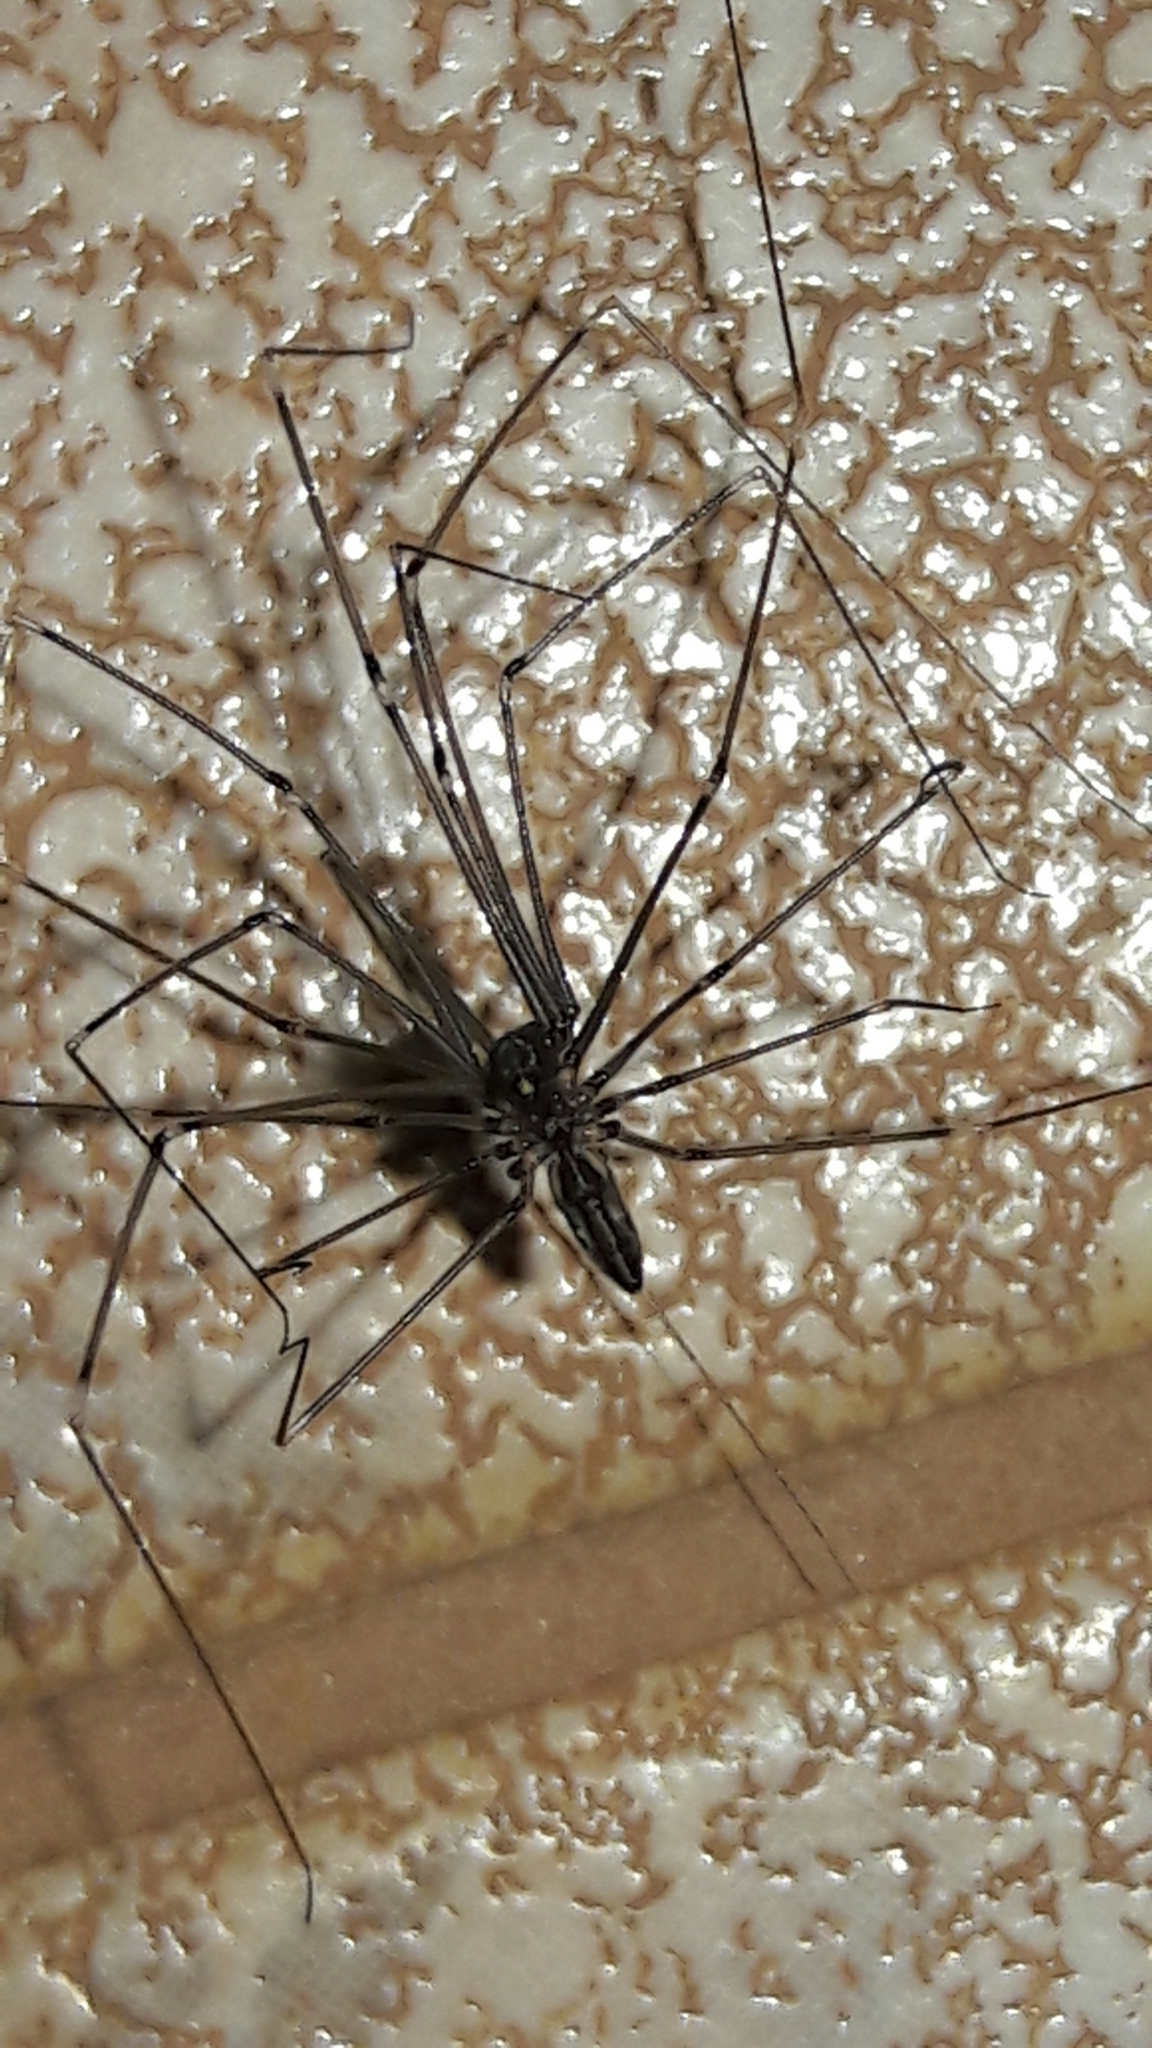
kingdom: Animalia
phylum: Arthropoda
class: Arachnida
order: Araneae
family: Pholcidae
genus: Smeringopus
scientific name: Smeringopus pallidus
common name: Cellar spider
